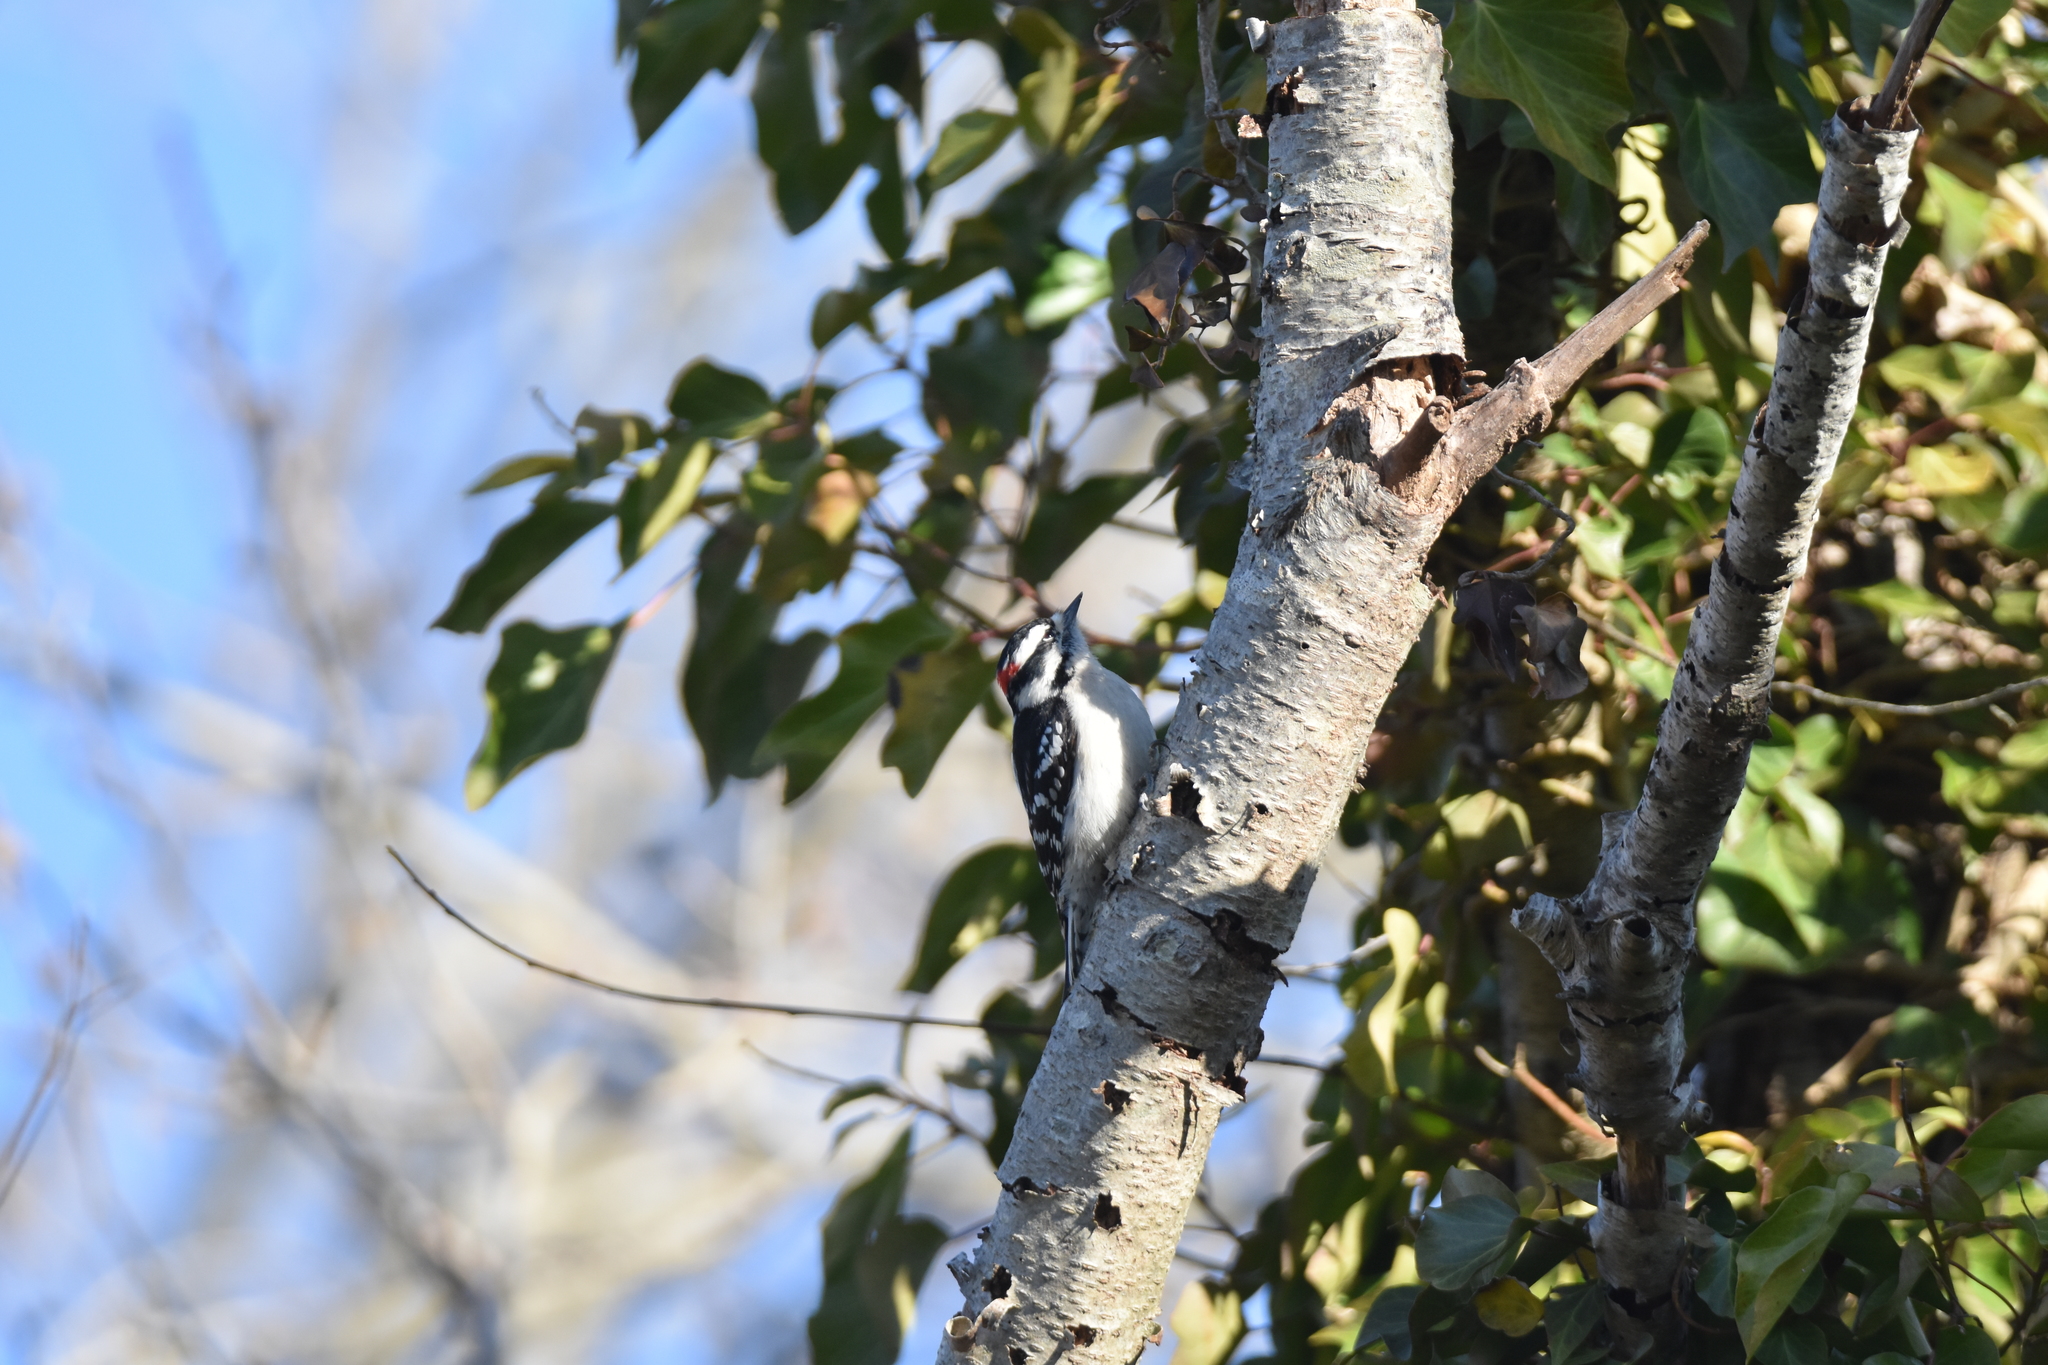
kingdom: Animalia
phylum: Chordata
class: Aves
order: Piciformes
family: Picidae
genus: Dryobates
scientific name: Dryobates pubescens
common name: Downy woodpecker
